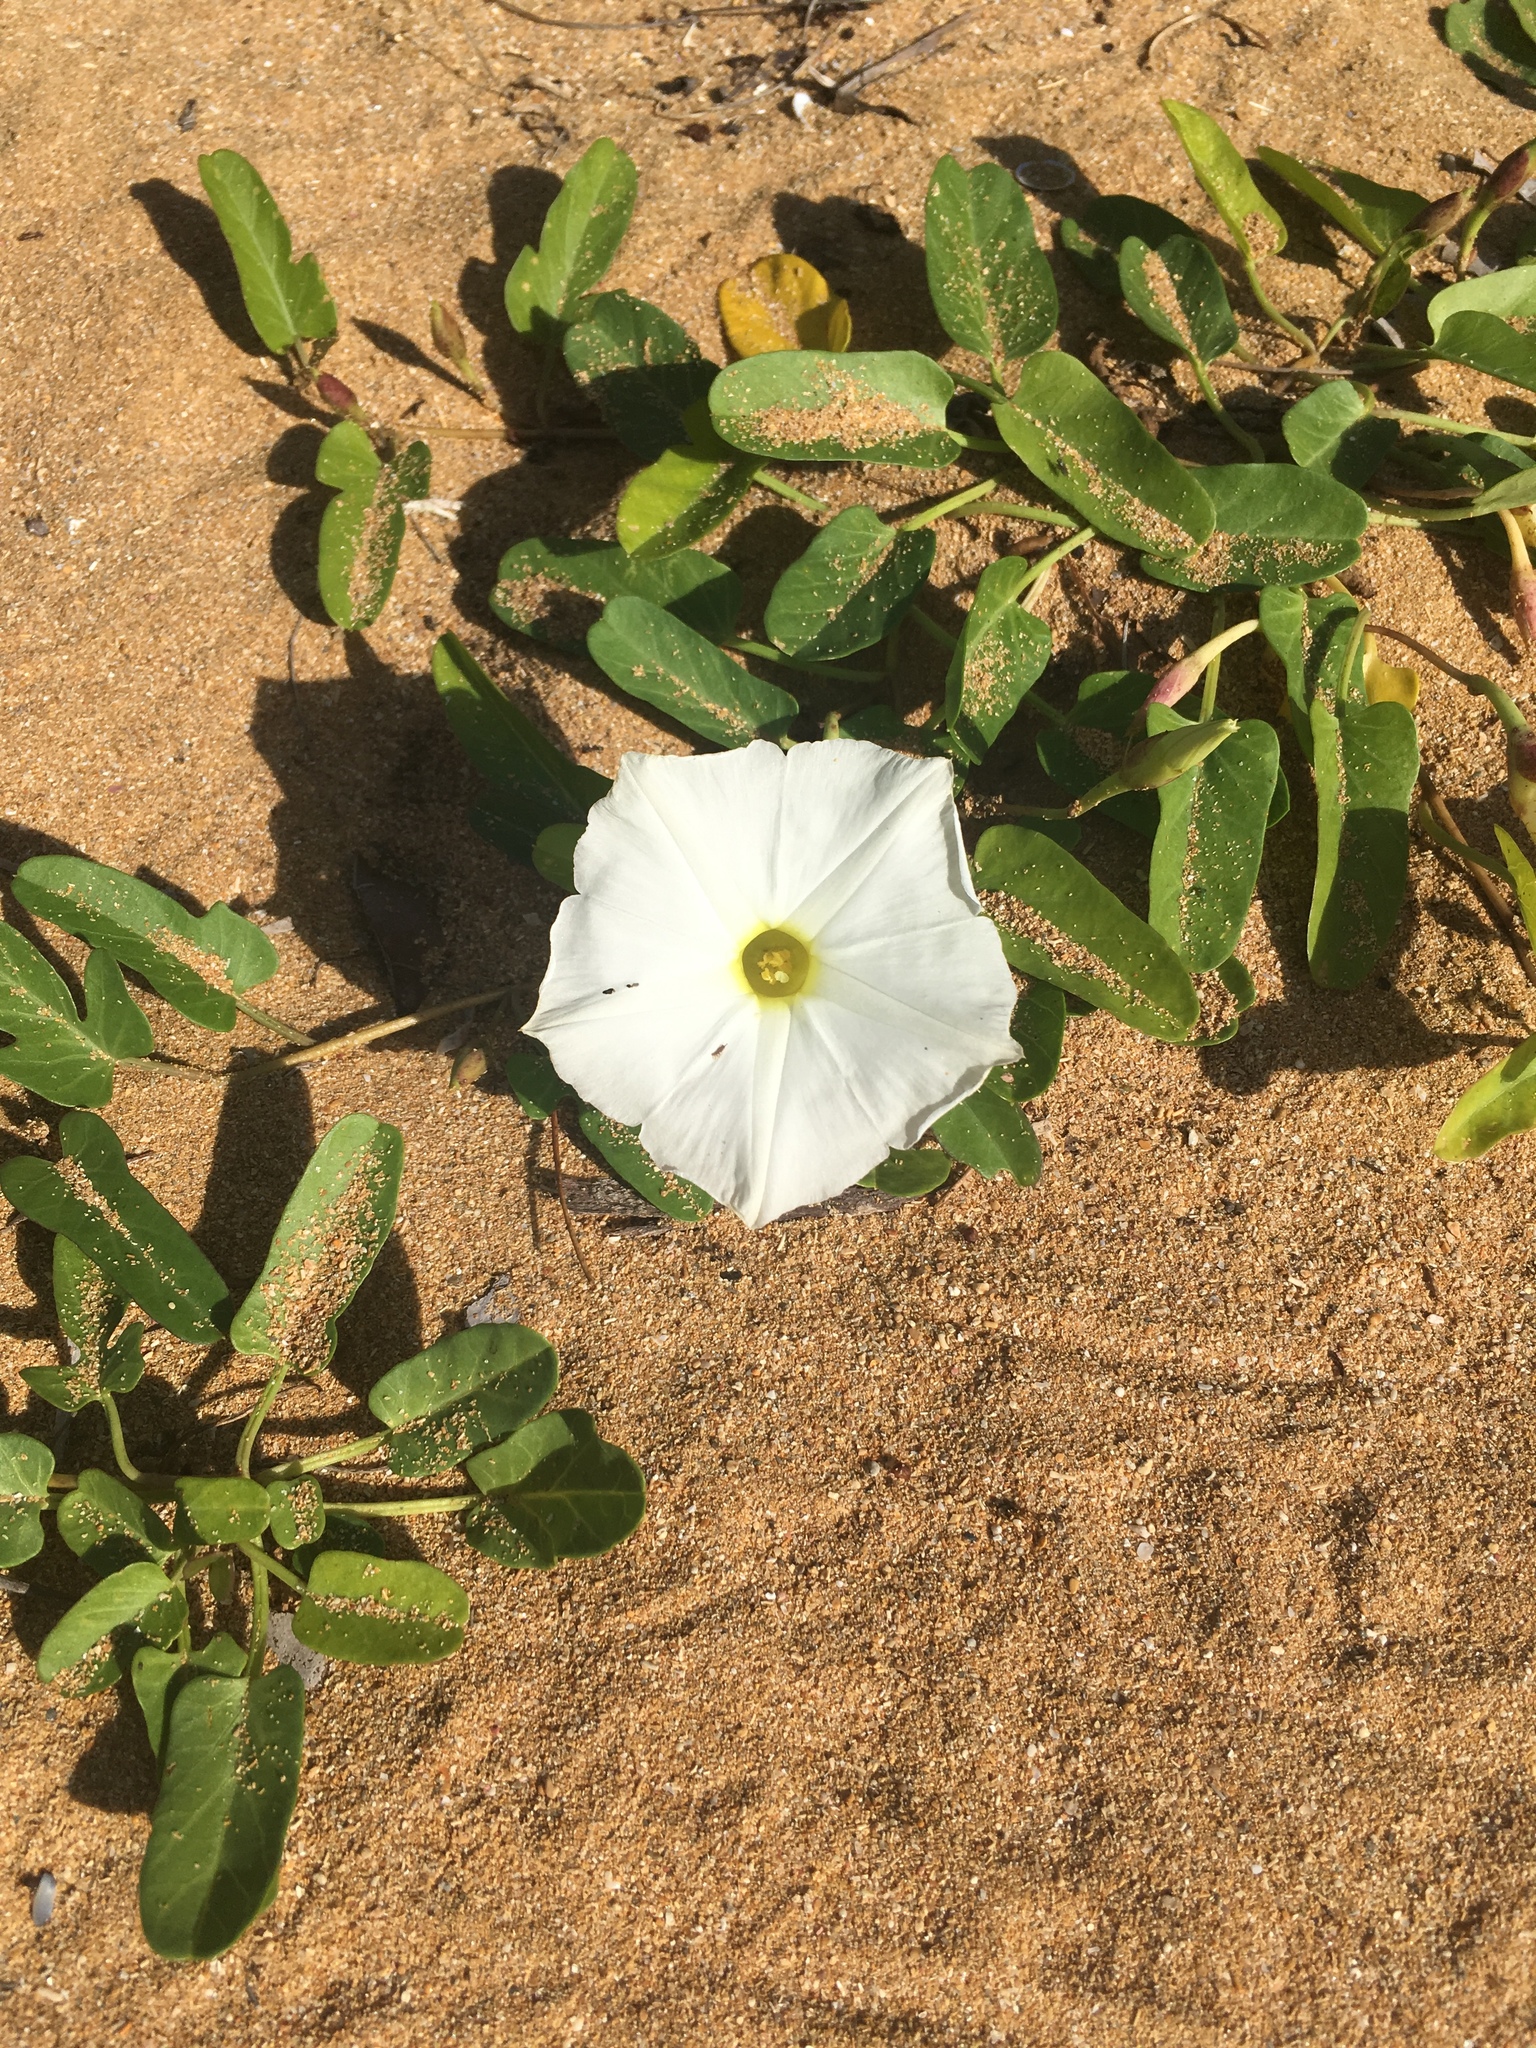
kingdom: Plantae
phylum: Tracheophyta
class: Magnoliopsida
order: Solanales
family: Convolvulaceae
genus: Ipomoea
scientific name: Ipomoea imperati
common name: Fiddle-leaf morning-glory
